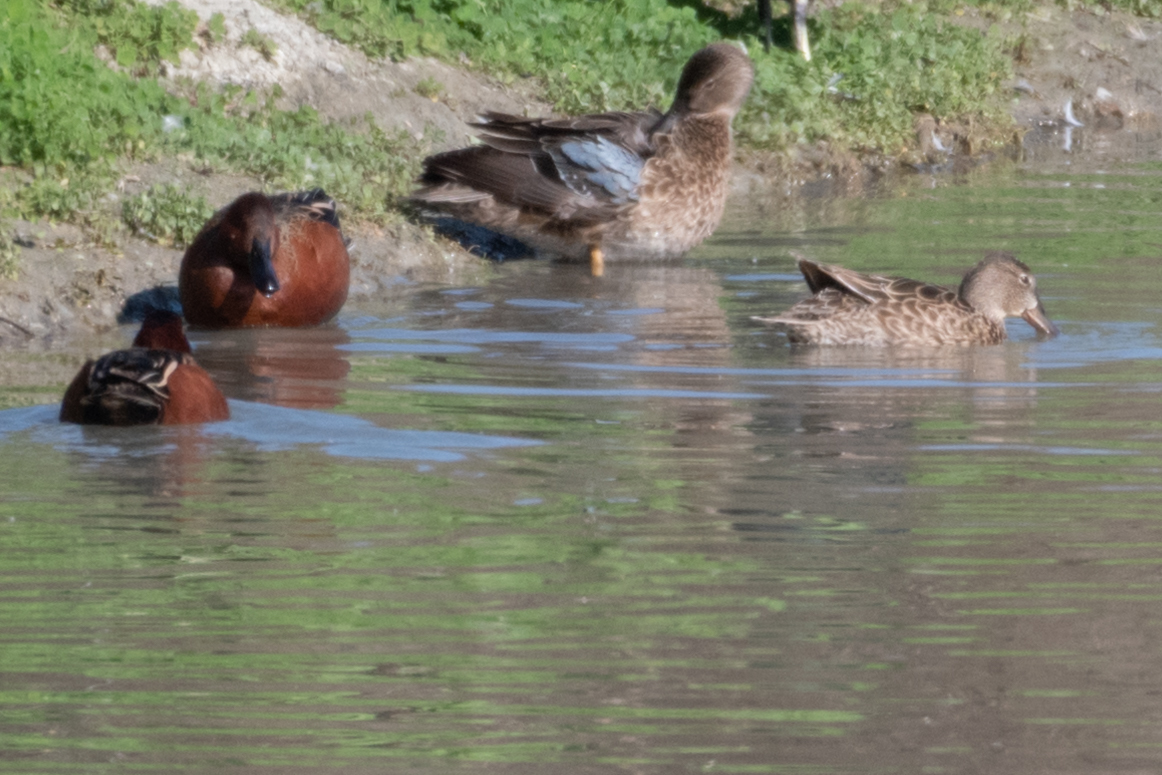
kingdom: Animalia
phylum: Chordata
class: Aves
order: Anseriformes
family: Anatidae
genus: Spatula
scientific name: Spatula cyanoptera
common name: Cinnamon teal
